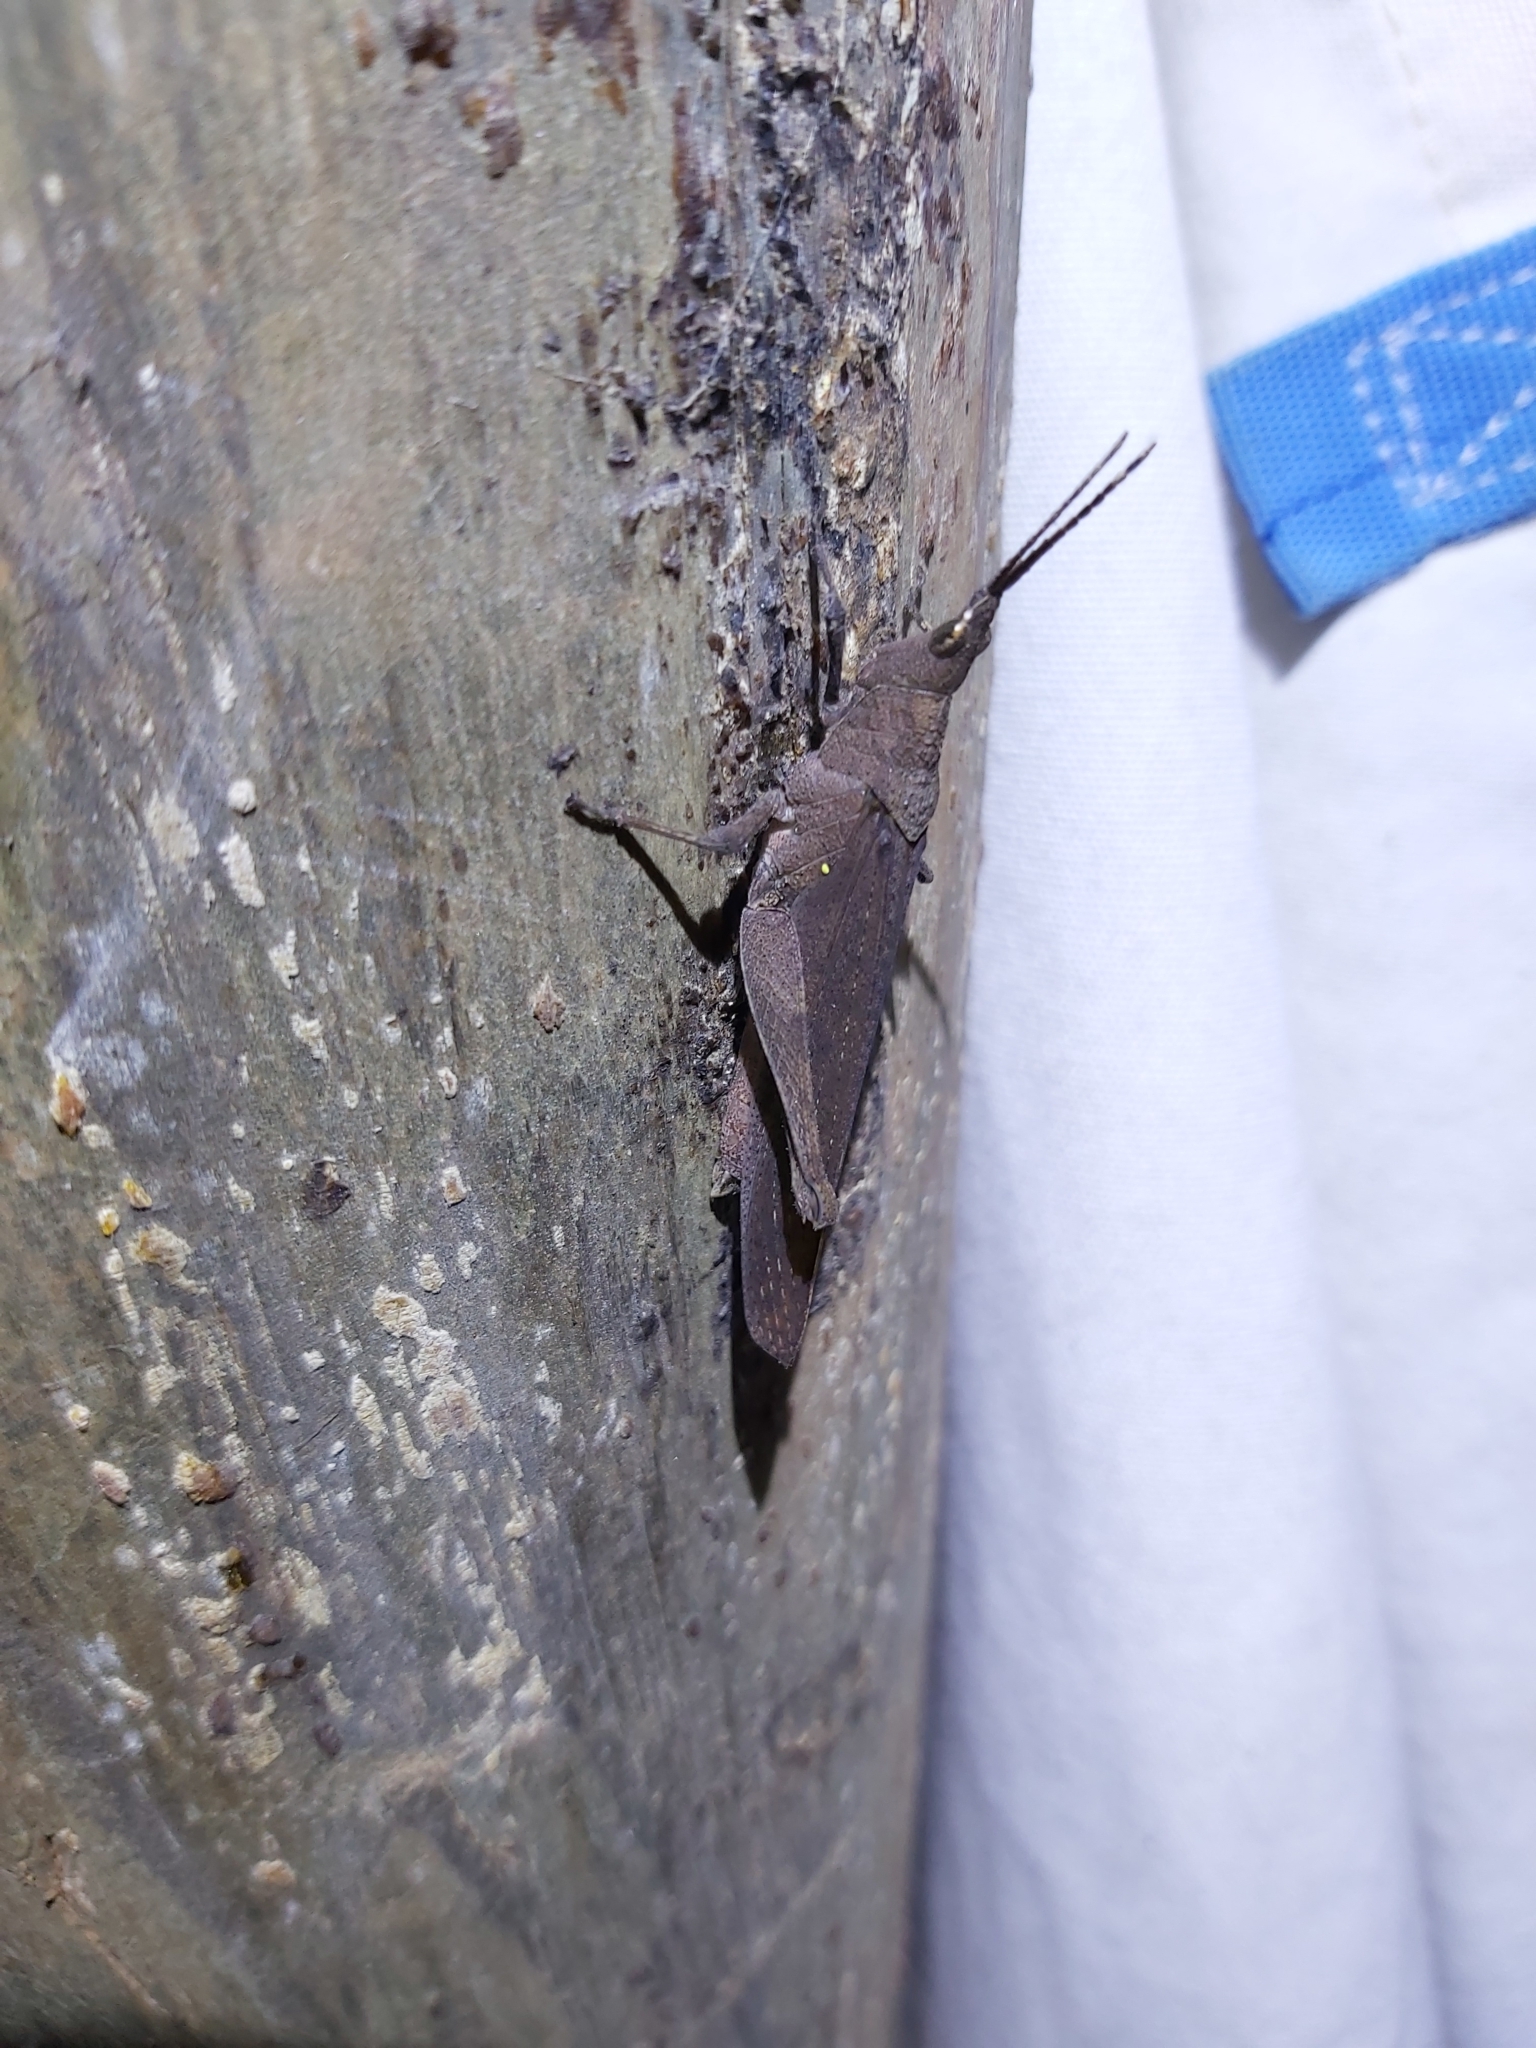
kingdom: Animalia
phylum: Arthropoda
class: Insecta
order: Orthoptera
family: Pyrgomorphidae
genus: Desmoptera
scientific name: Desmoptera truncatipennis
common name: Large forest pyrgomorph
